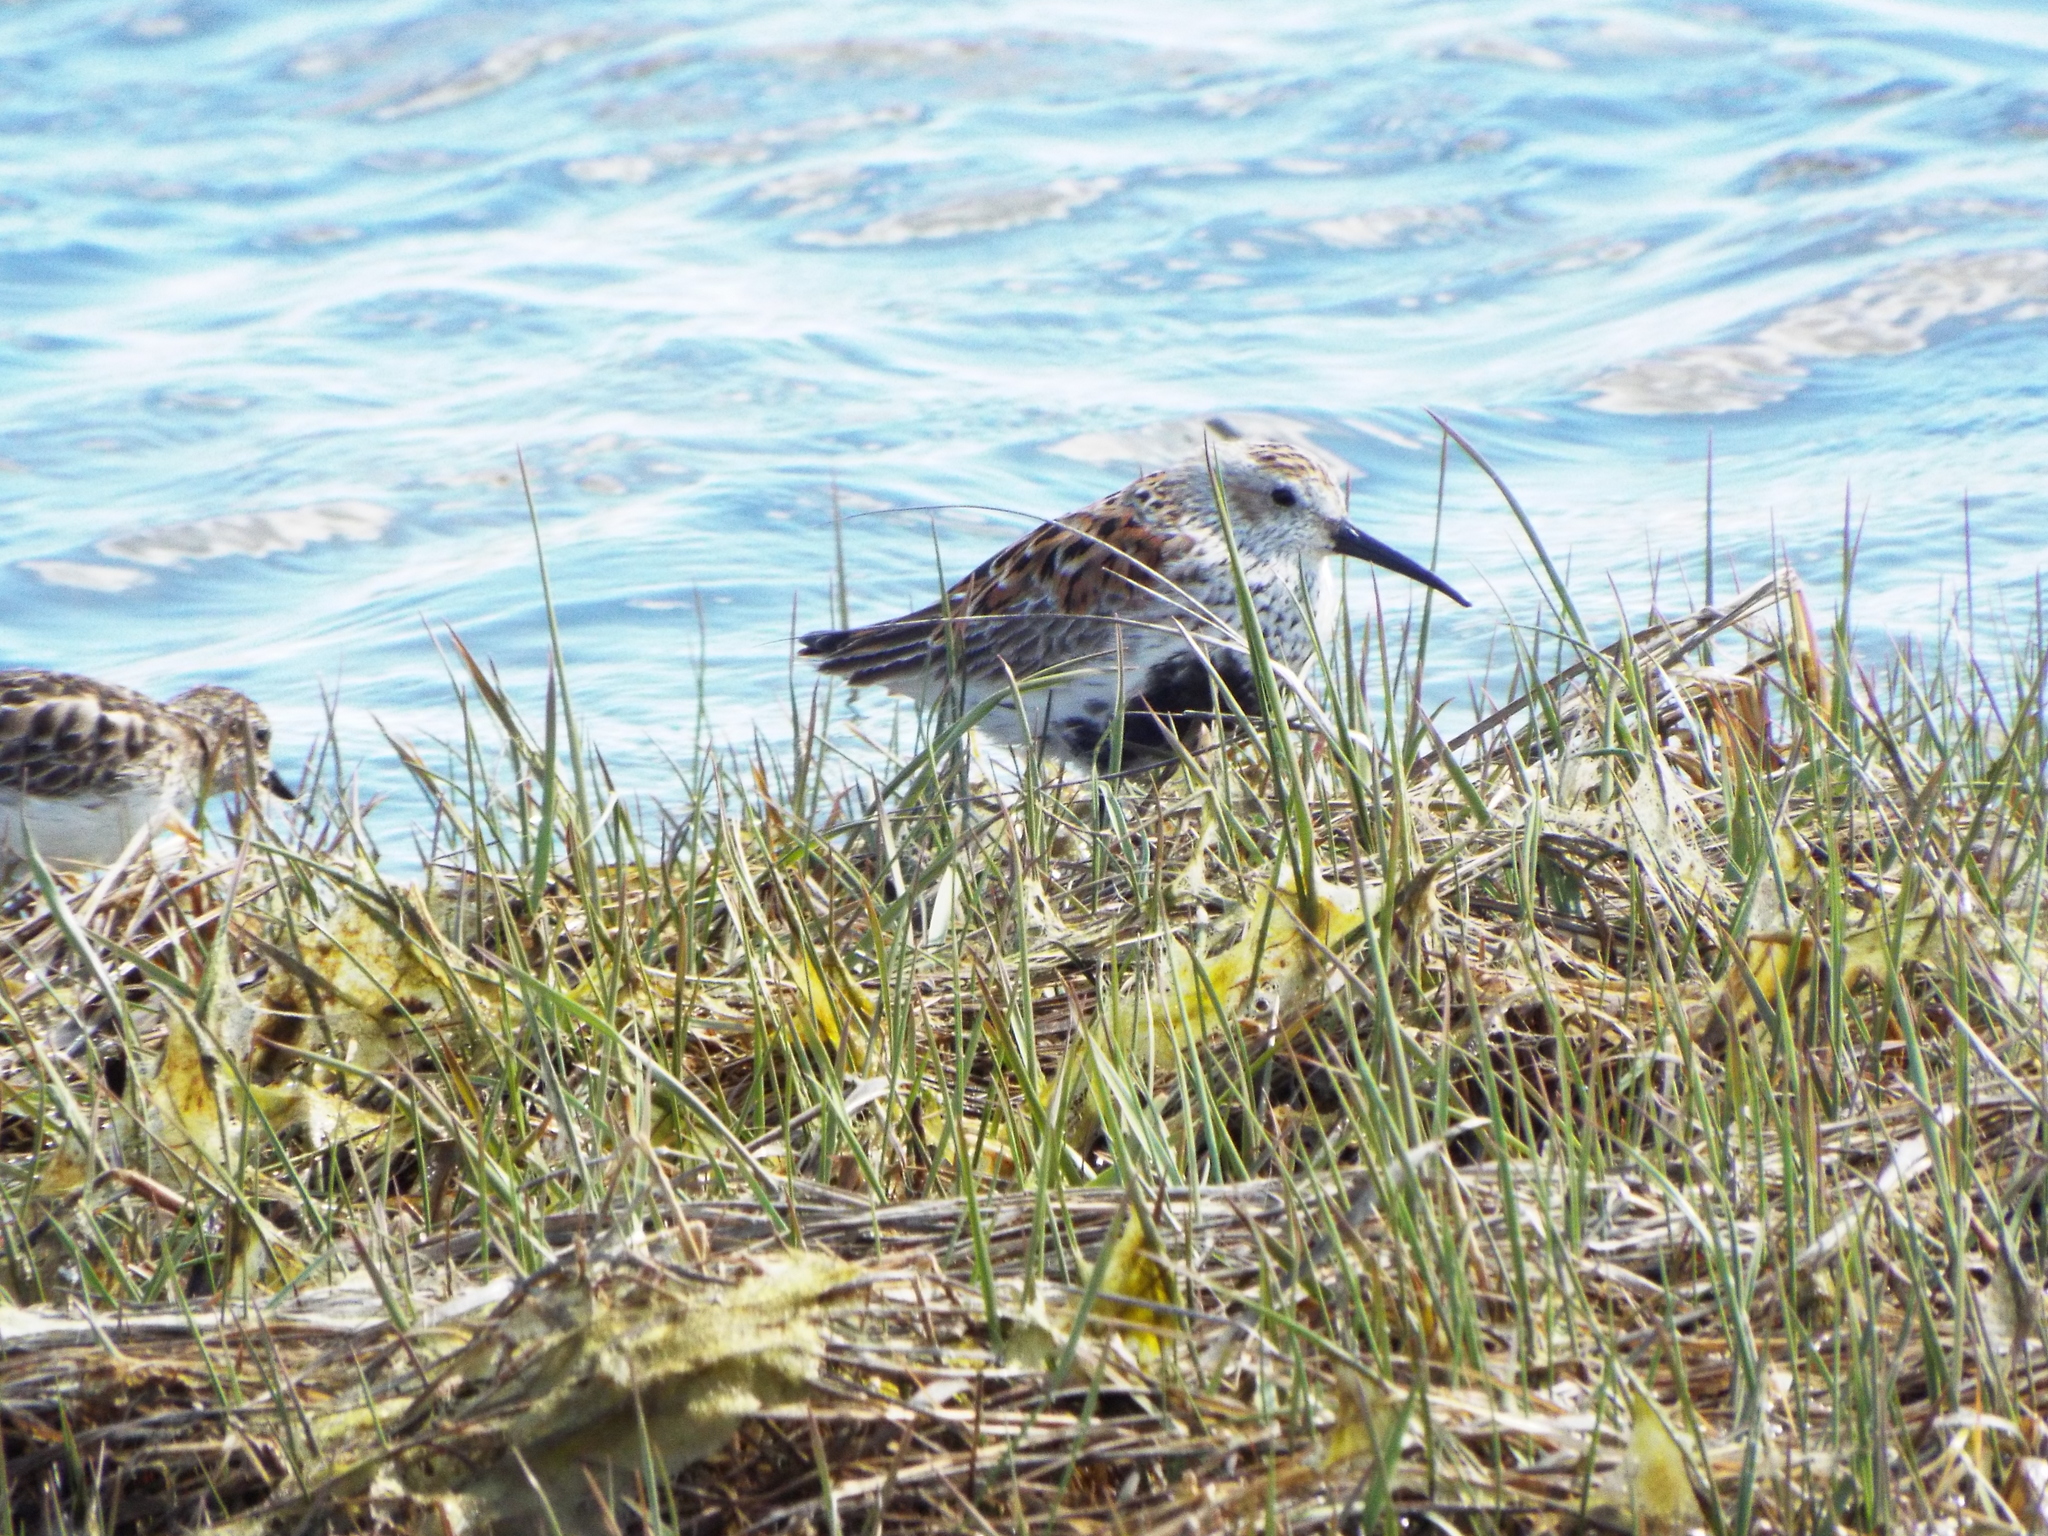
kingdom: Animalia
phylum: Chordata
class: Aves
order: Charadriiformes
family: Scolopacidae
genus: Calidris
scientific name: Calidris alpina
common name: Dunlin
